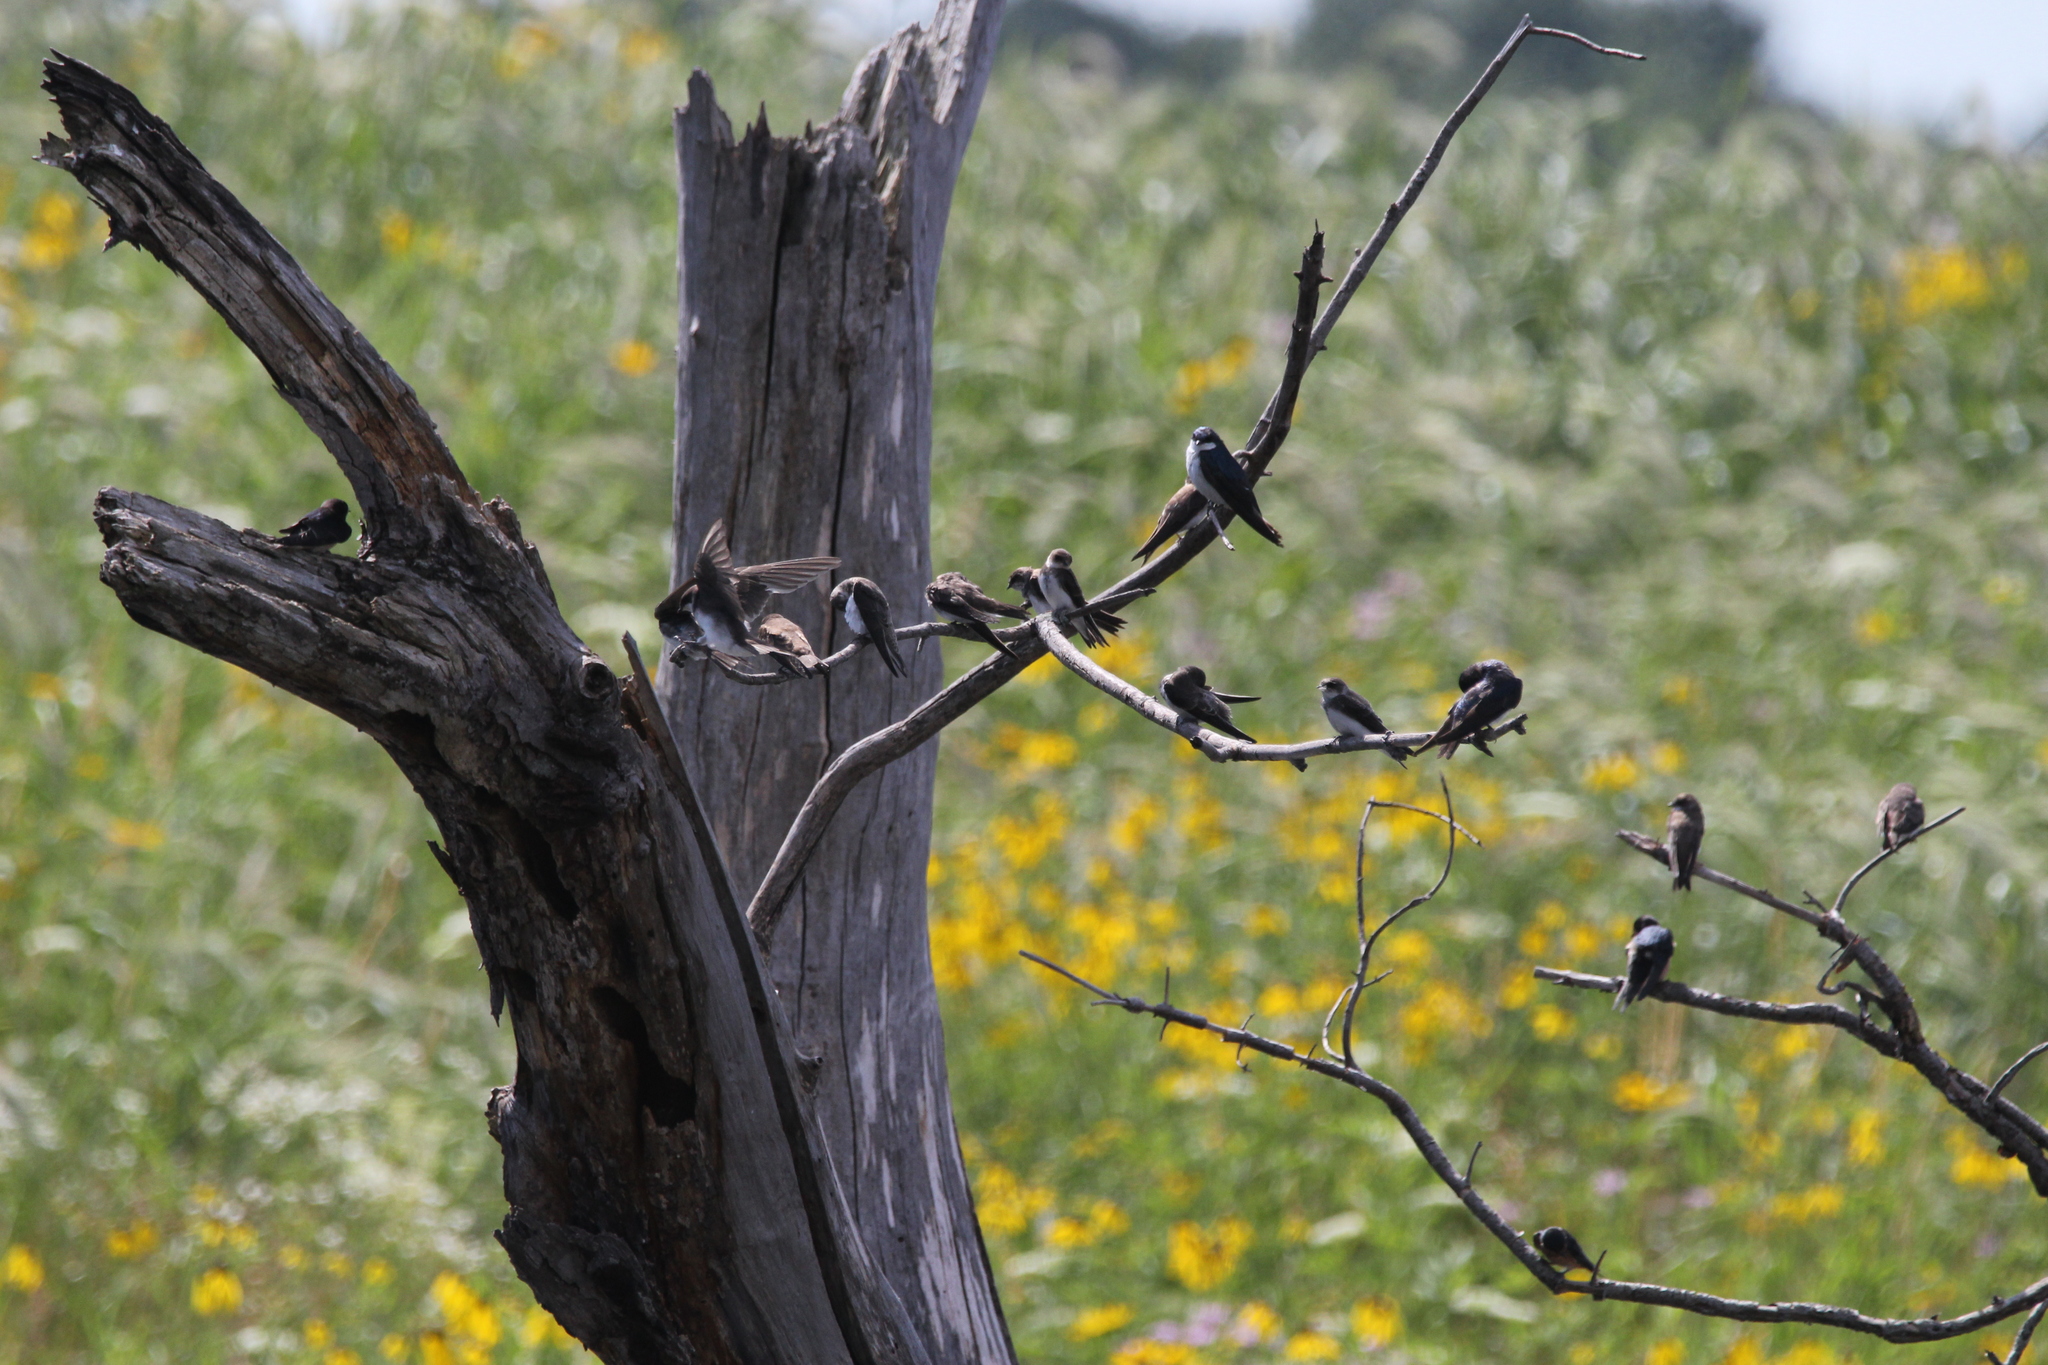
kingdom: Animalia
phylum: Chordata
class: Aves
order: Passeriformes
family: Hirundinidae
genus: Tachycineta
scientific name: Tachycineta bicolor
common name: Tree swallow
